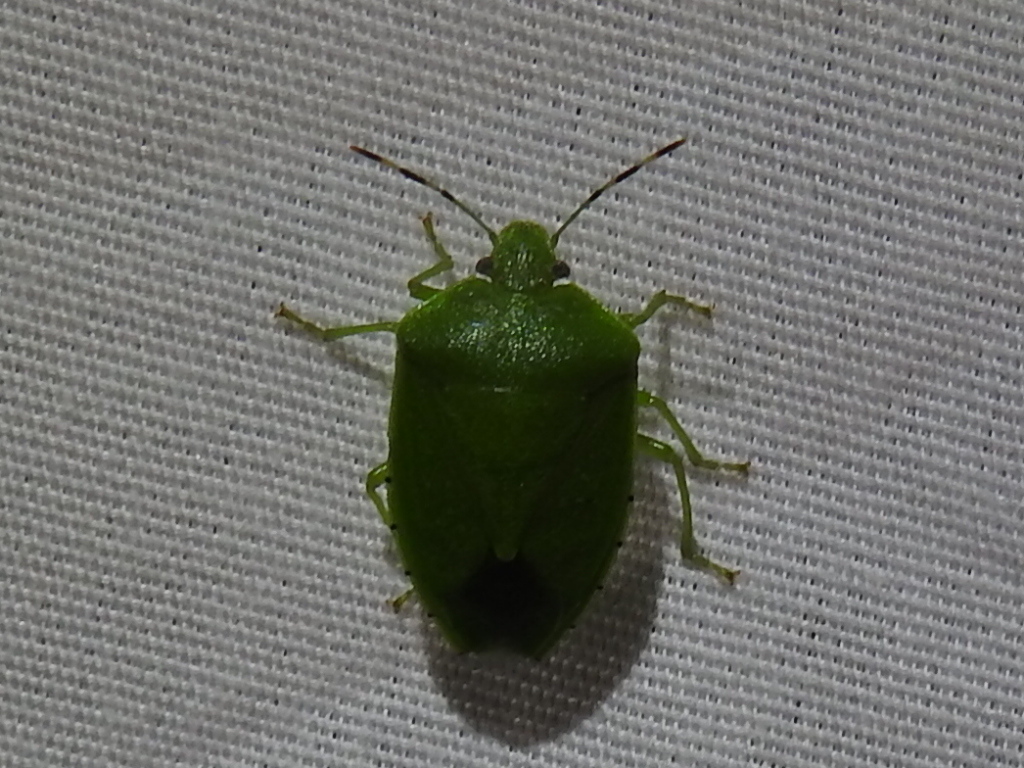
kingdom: Animalia
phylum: Arthropoda
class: Insecta
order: Hemiptera
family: Pentatomidae
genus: Chinavia
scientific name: Chinavia hilaris
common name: Green stink bug
